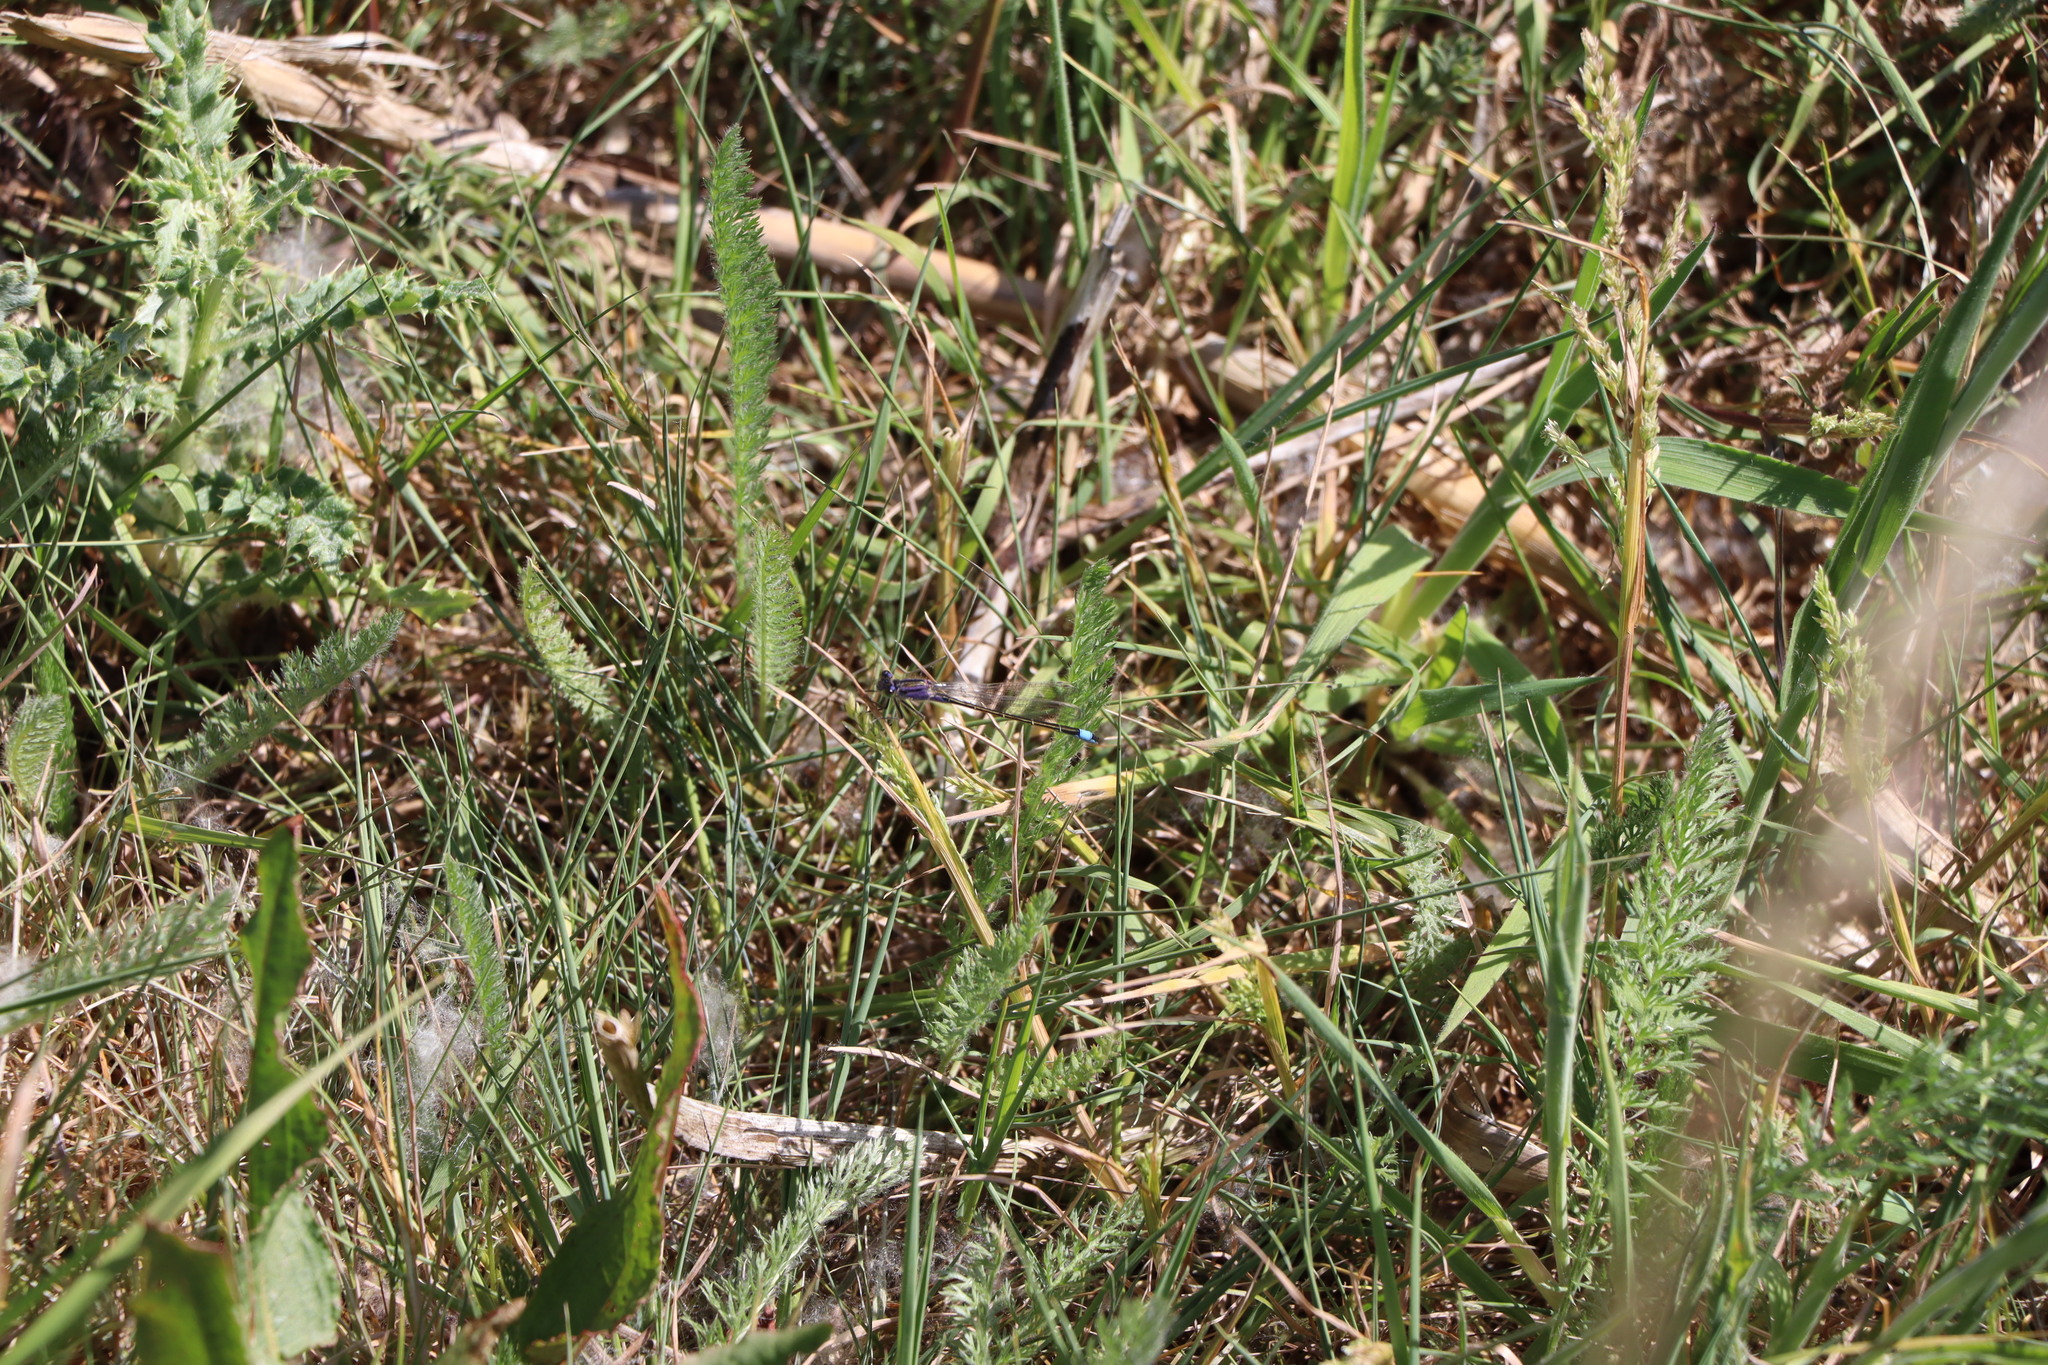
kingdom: Animalia
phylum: Arthropoda
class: Insecta
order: Odonata
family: Coenagrionidae
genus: Ischnura
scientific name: Ischnura elegans
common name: Blue-tailed damselfly
